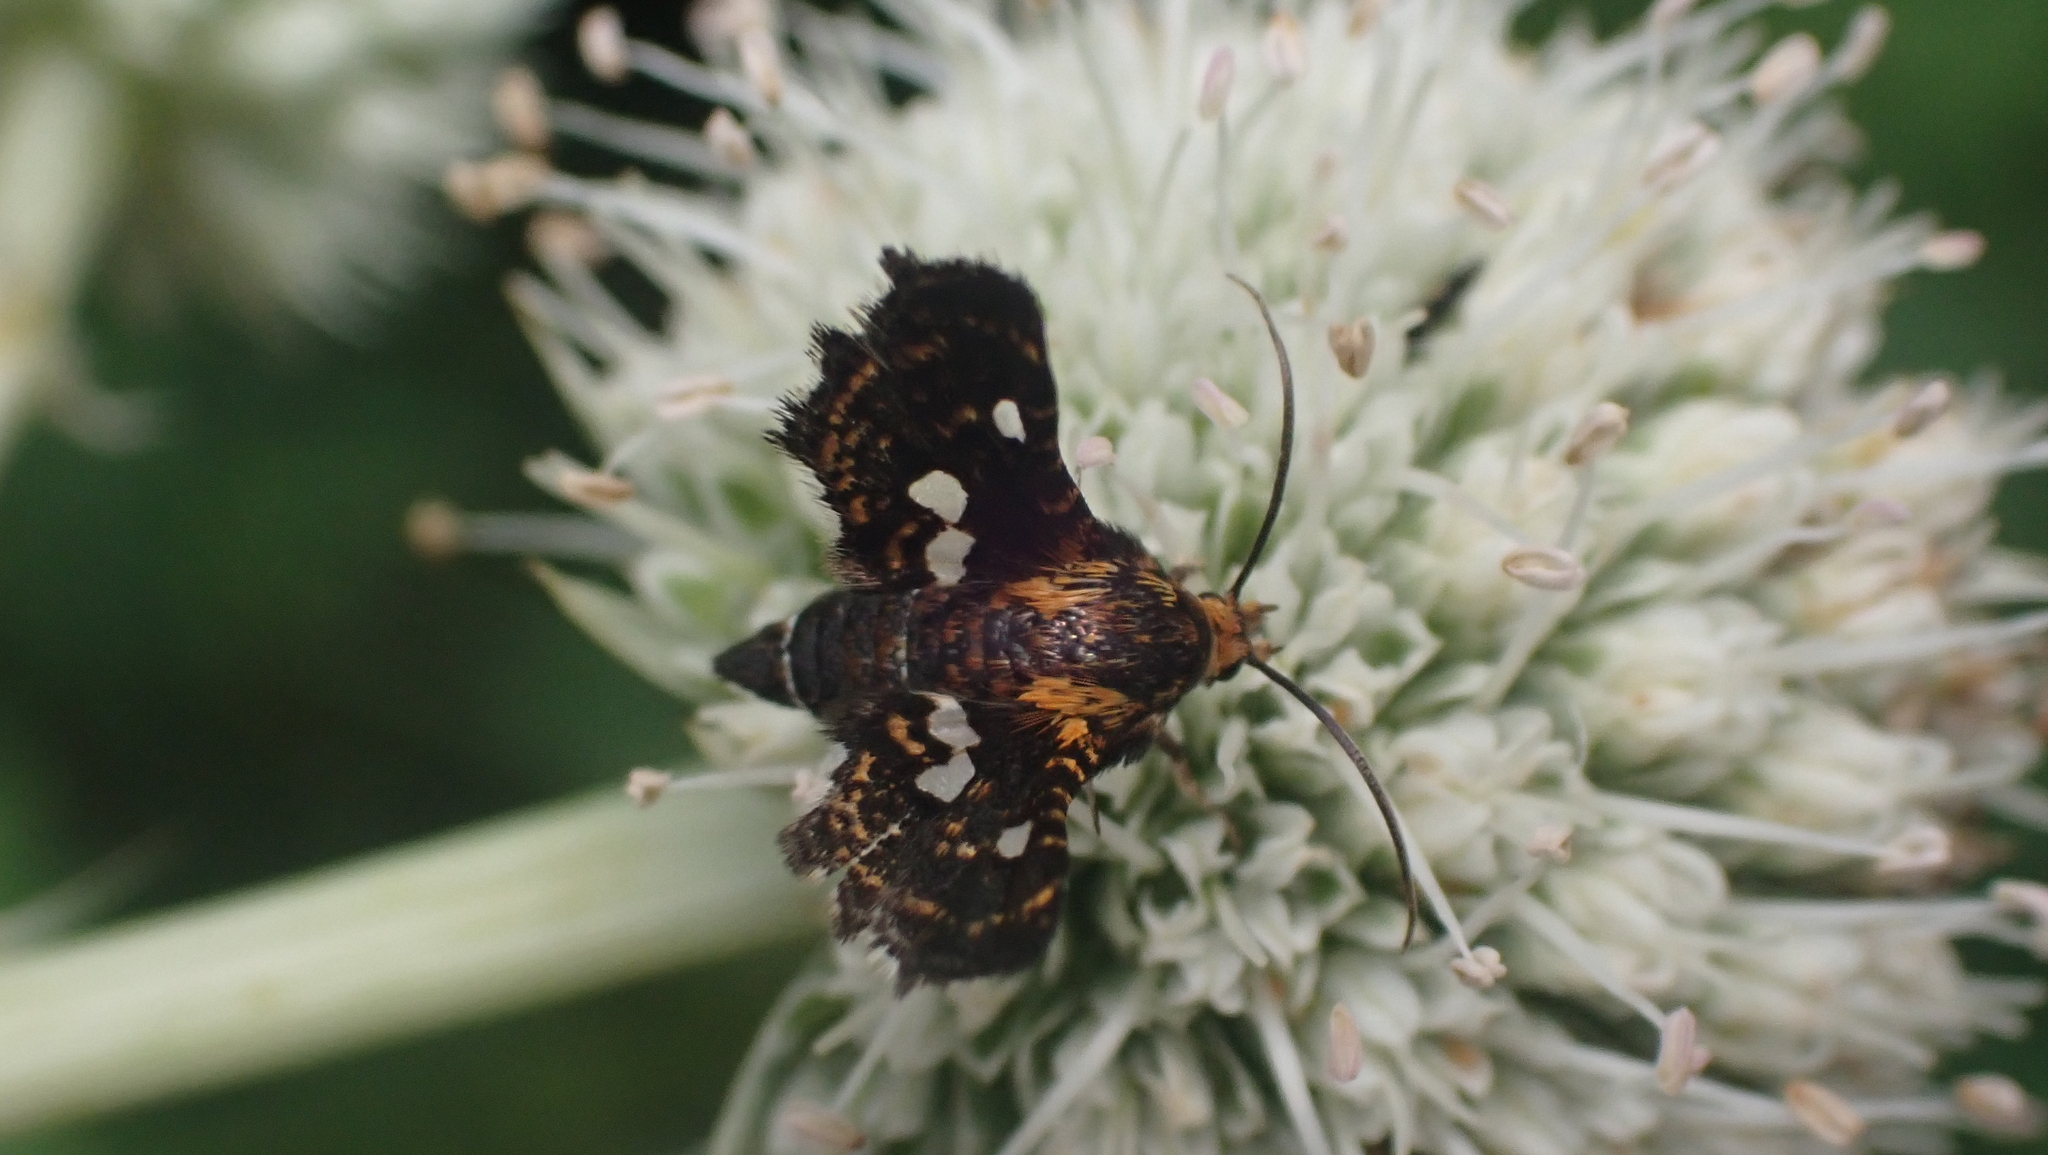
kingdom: Animalia
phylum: Arthropoda
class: Insecta
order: Lepidoptera
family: Thyrididae
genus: Thyris
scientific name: Thyris maculata
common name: Spotted thyris moth
